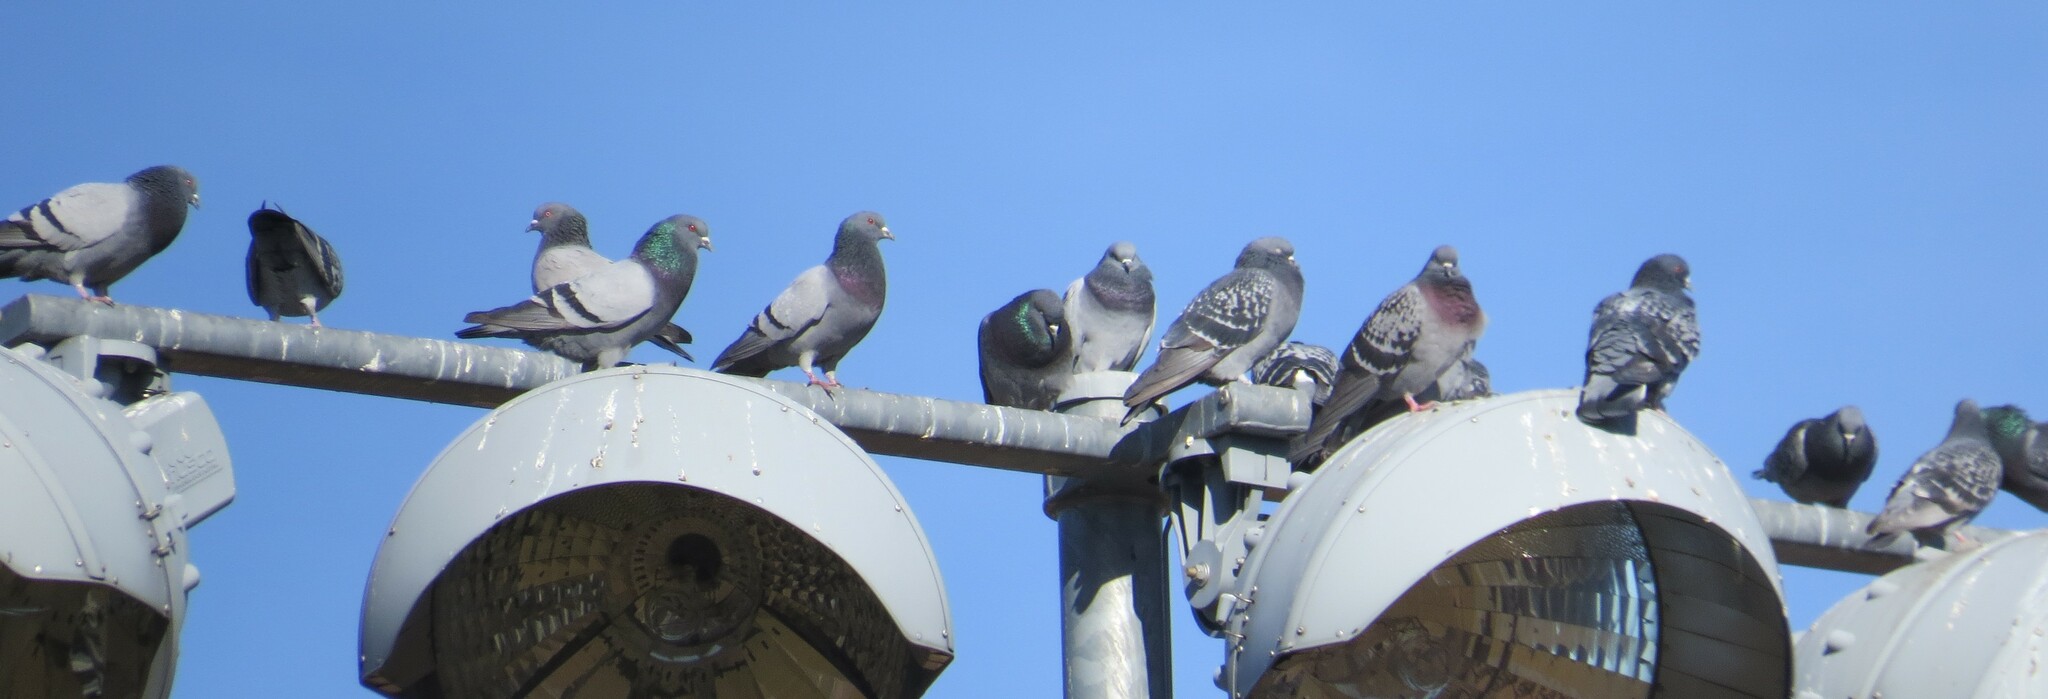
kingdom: Animalia
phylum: Chordata
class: Aves
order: Columbiformes
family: Columbidae
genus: Columba
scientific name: Columba livia
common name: Rock pigeon
